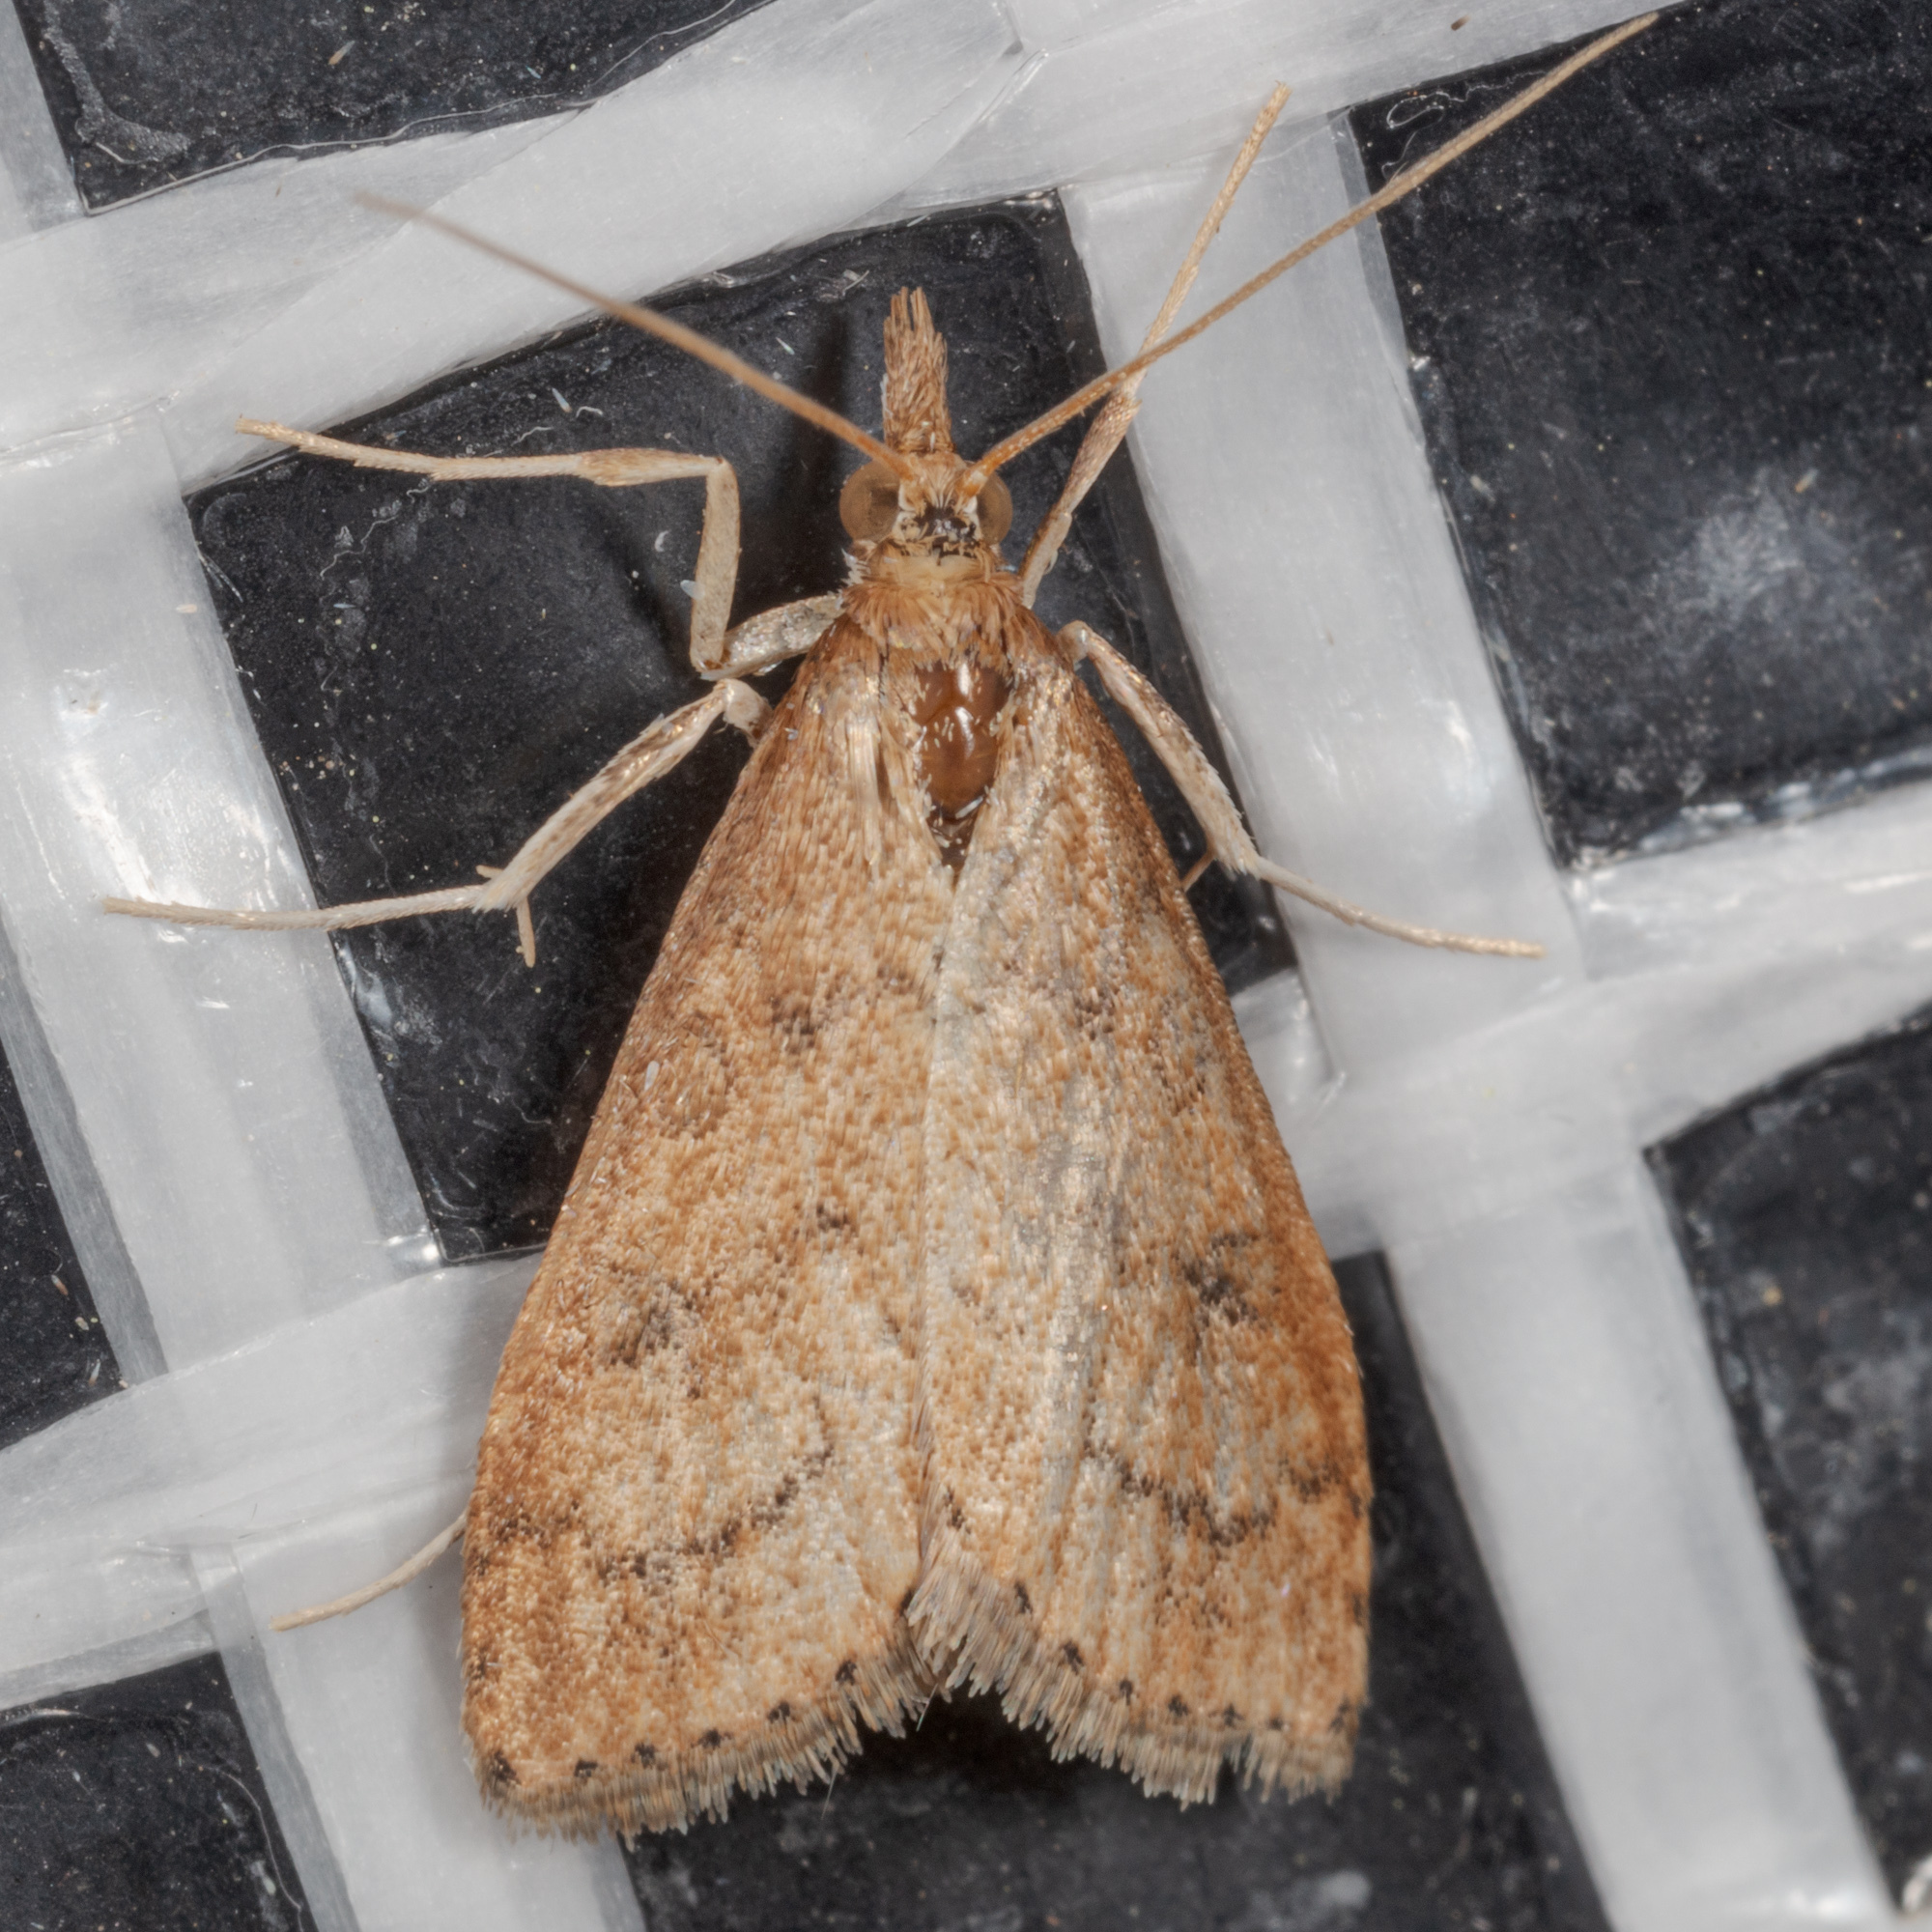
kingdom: Animalia
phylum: Arthropoda
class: Insecta
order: Lepidoptera
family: Crambidae
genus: Udea
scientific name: Udea rubigalis
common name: Celery leaftier moth
